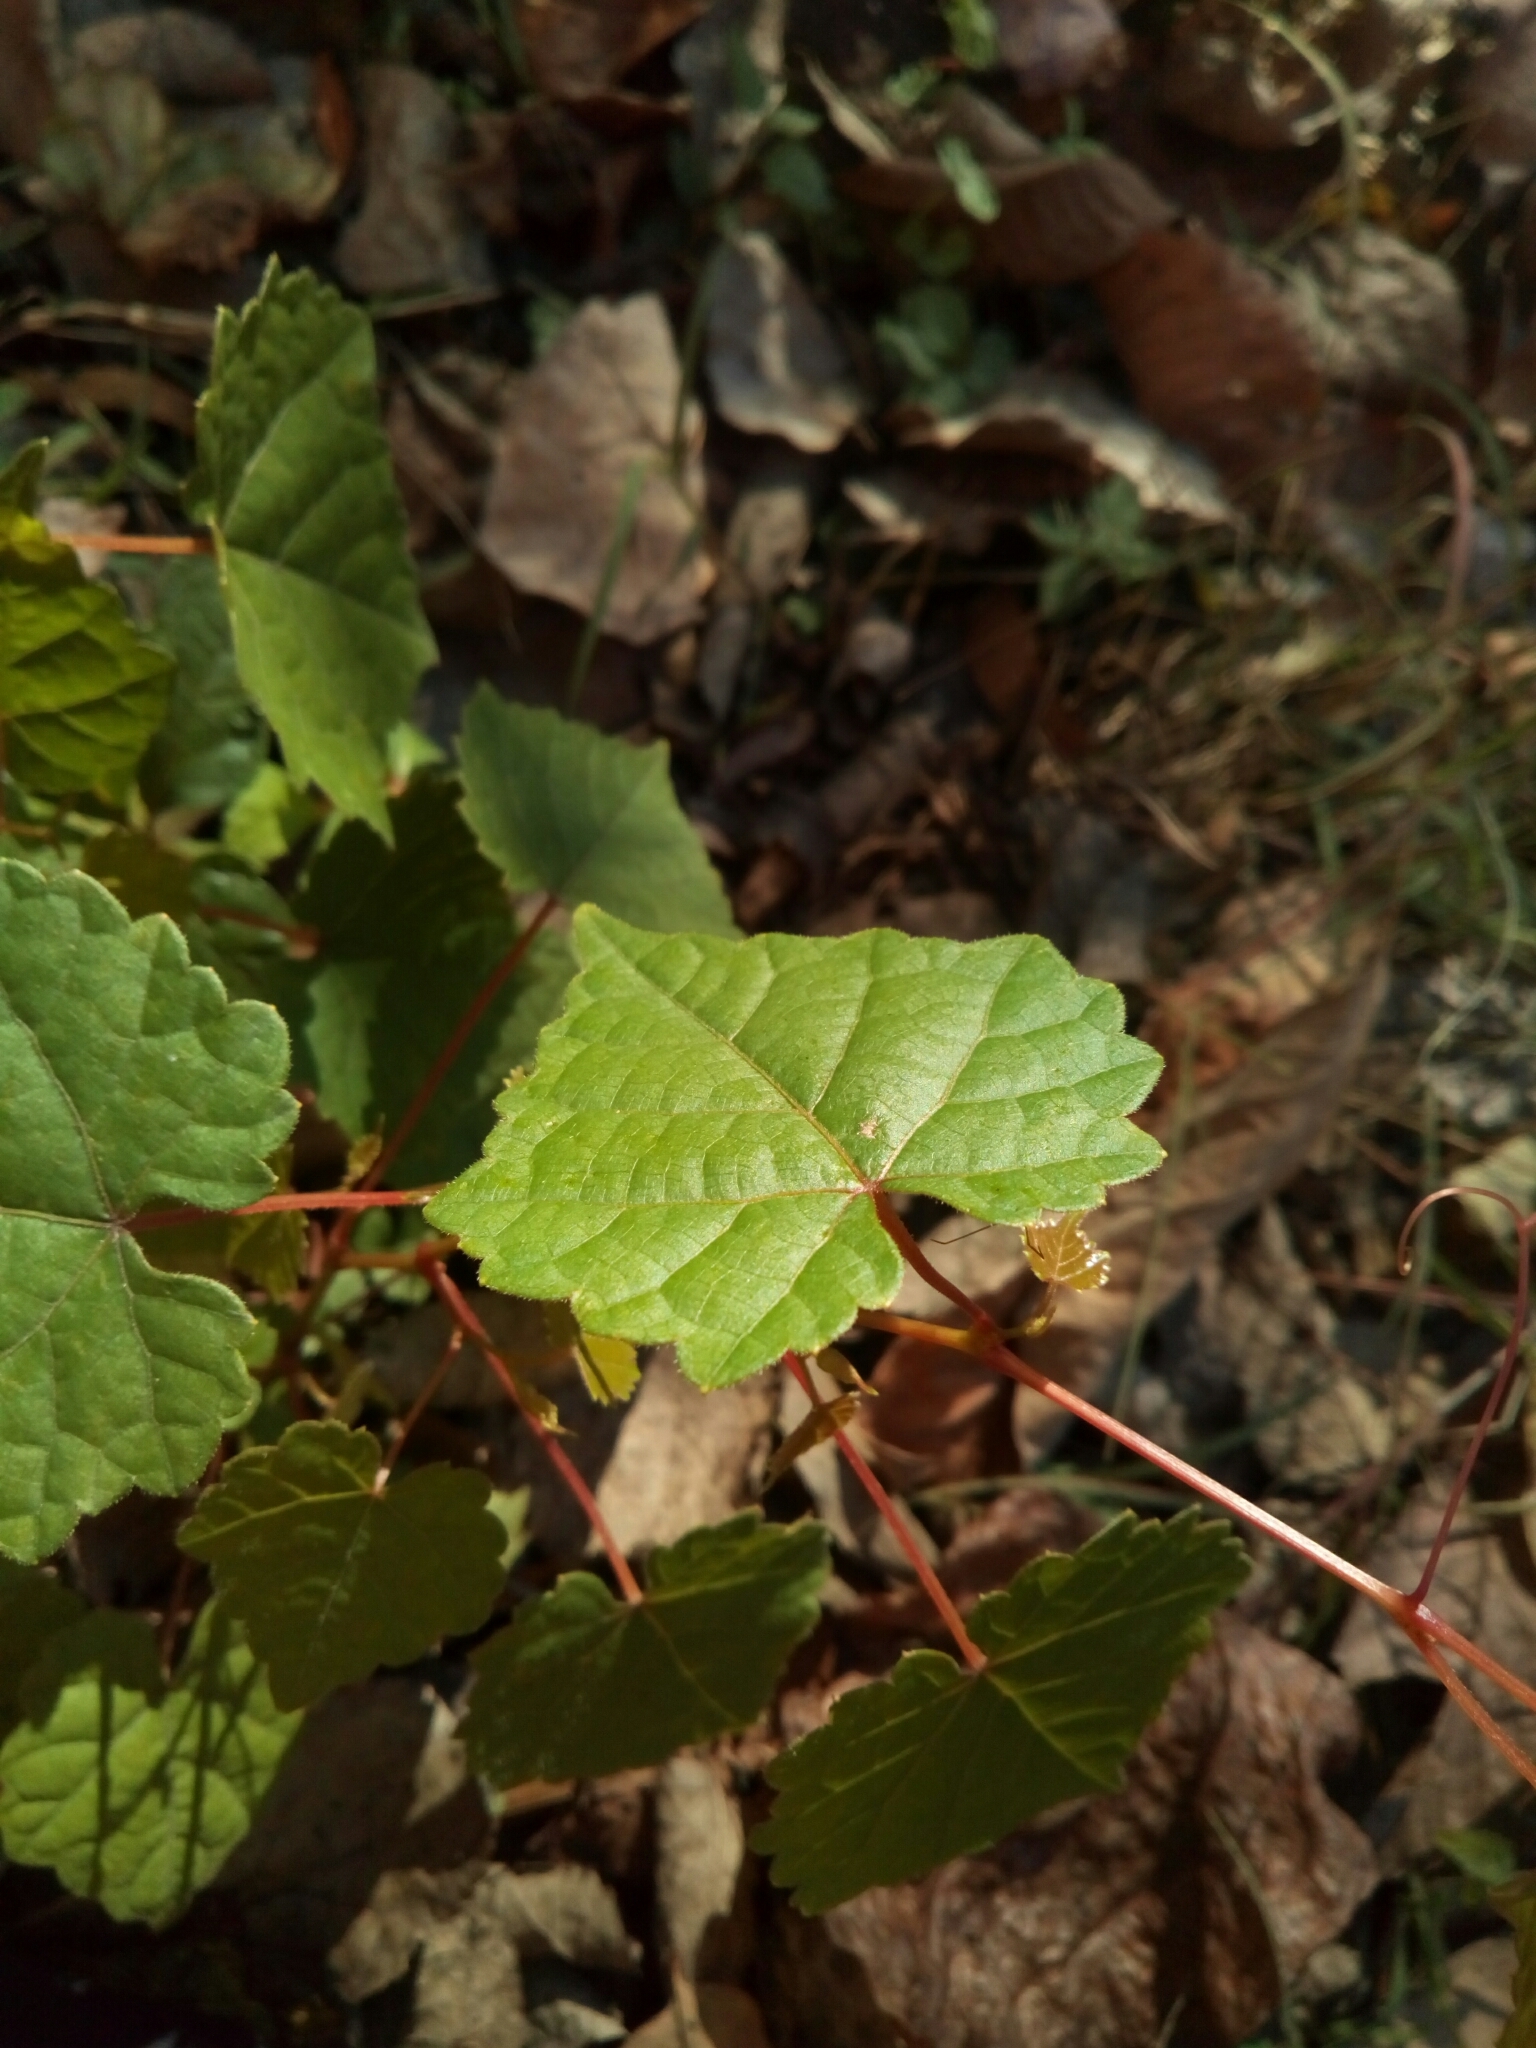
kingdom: Plantae
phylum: Tracheophyta
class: Magnoliopsida
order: Vitales
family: Vitaceae
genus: Vitis
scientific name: Vitis rotundifolia
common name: Muscadine grape
